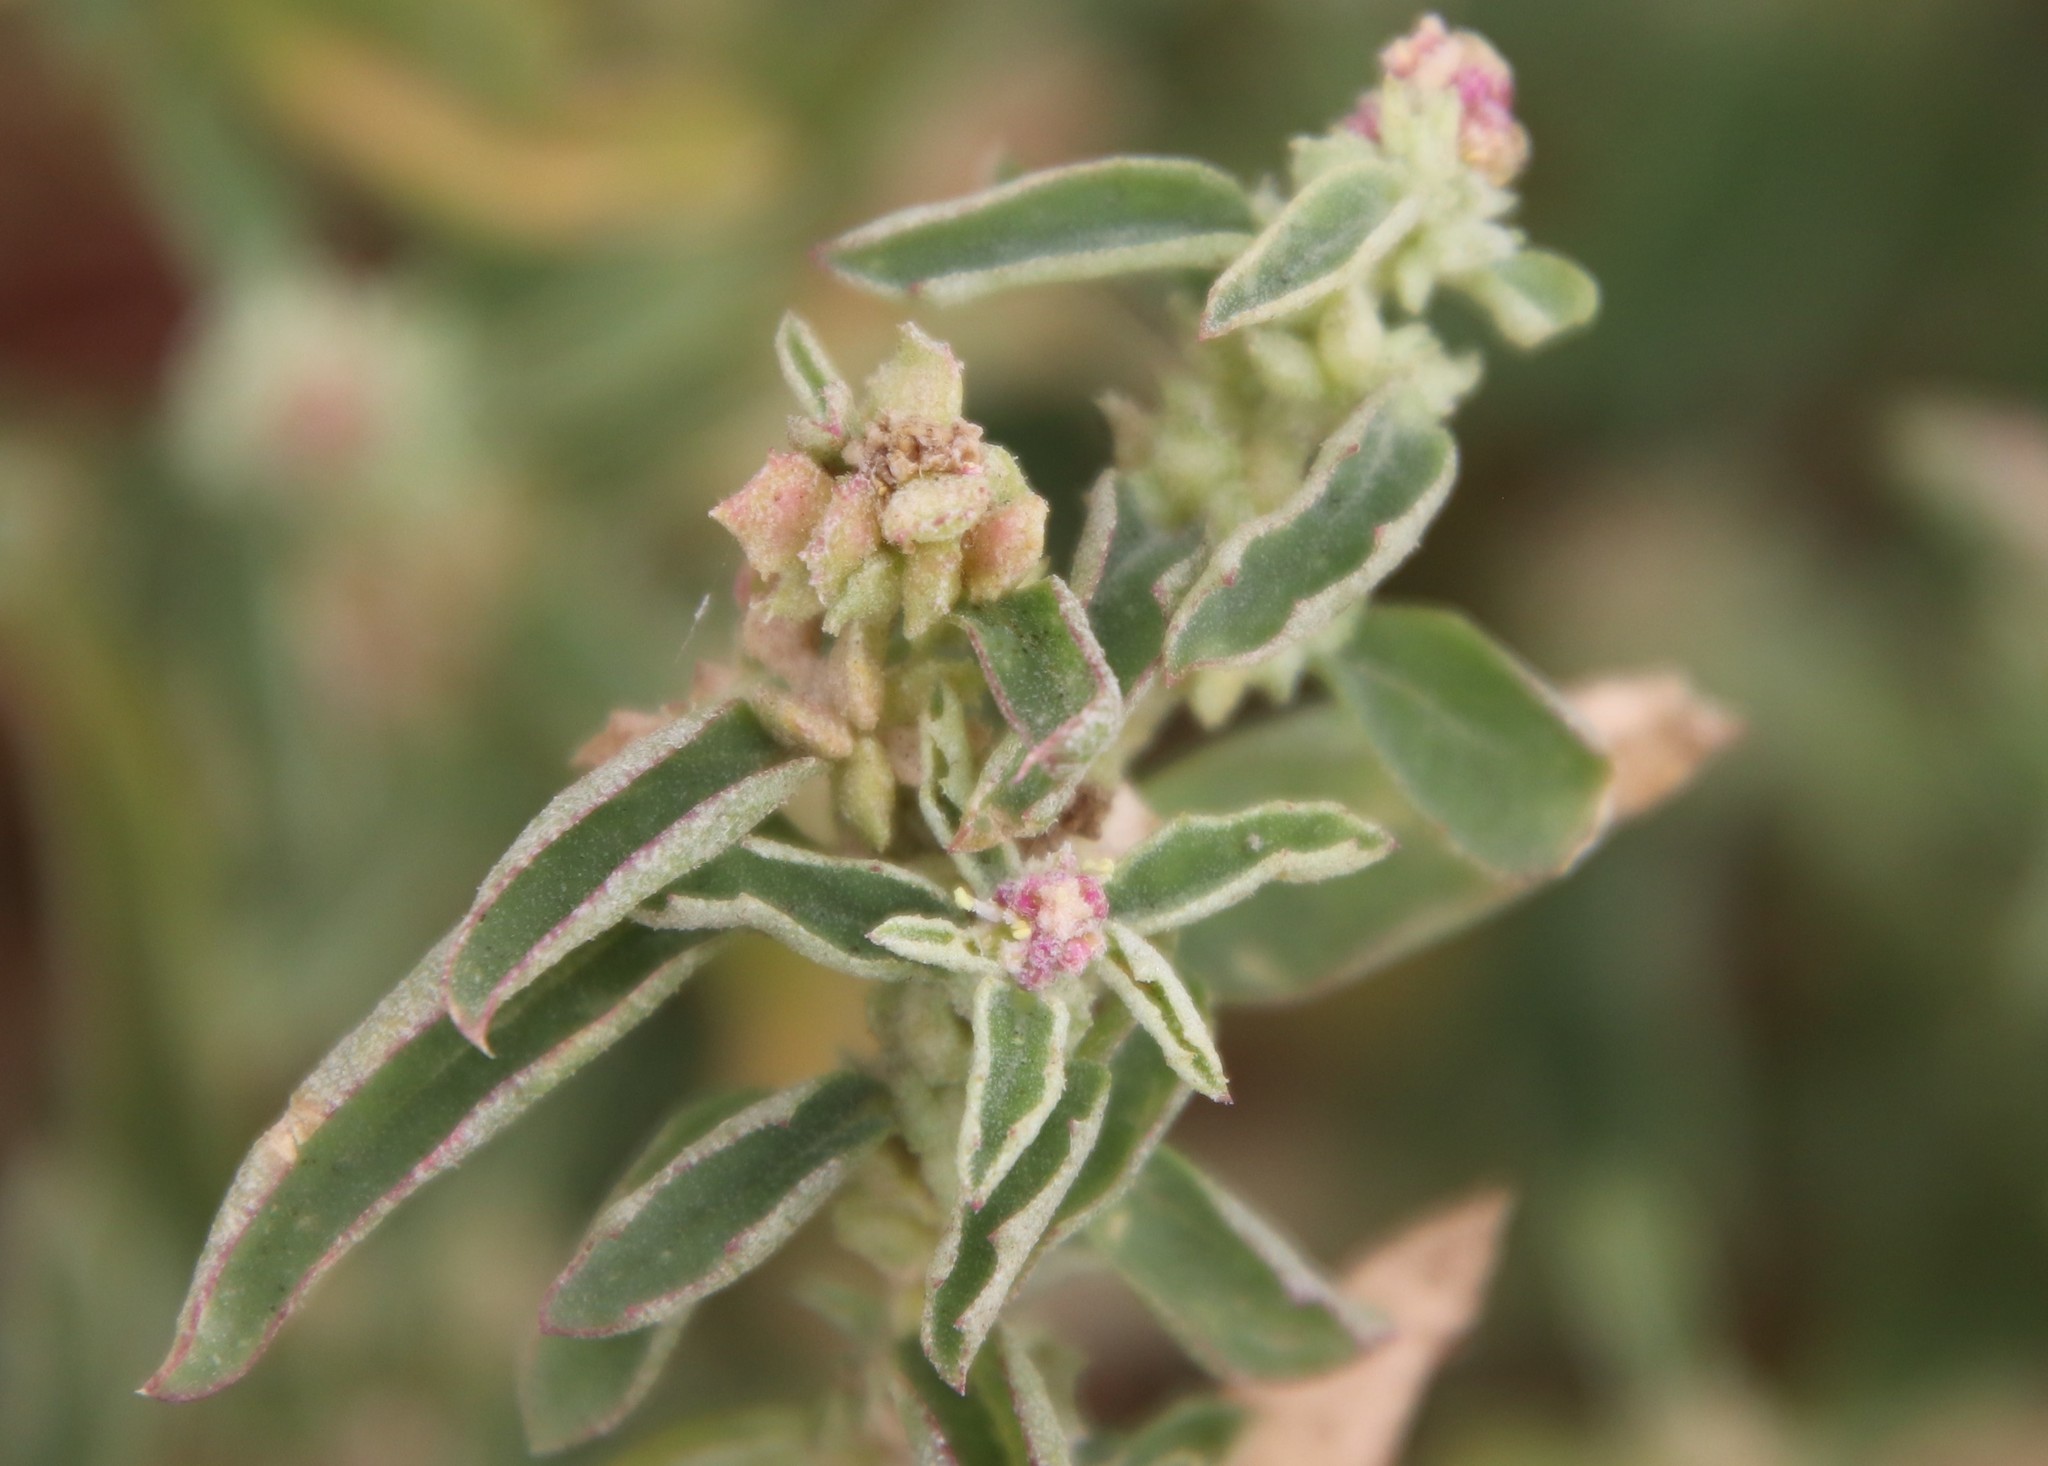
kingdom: Plantae
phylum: Tracheophyta
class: Magnoliopsida
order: Caryophyllales
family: Amaranthaceae
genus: Atriplex
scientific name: Atriplex suberecta
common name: Australian orache
